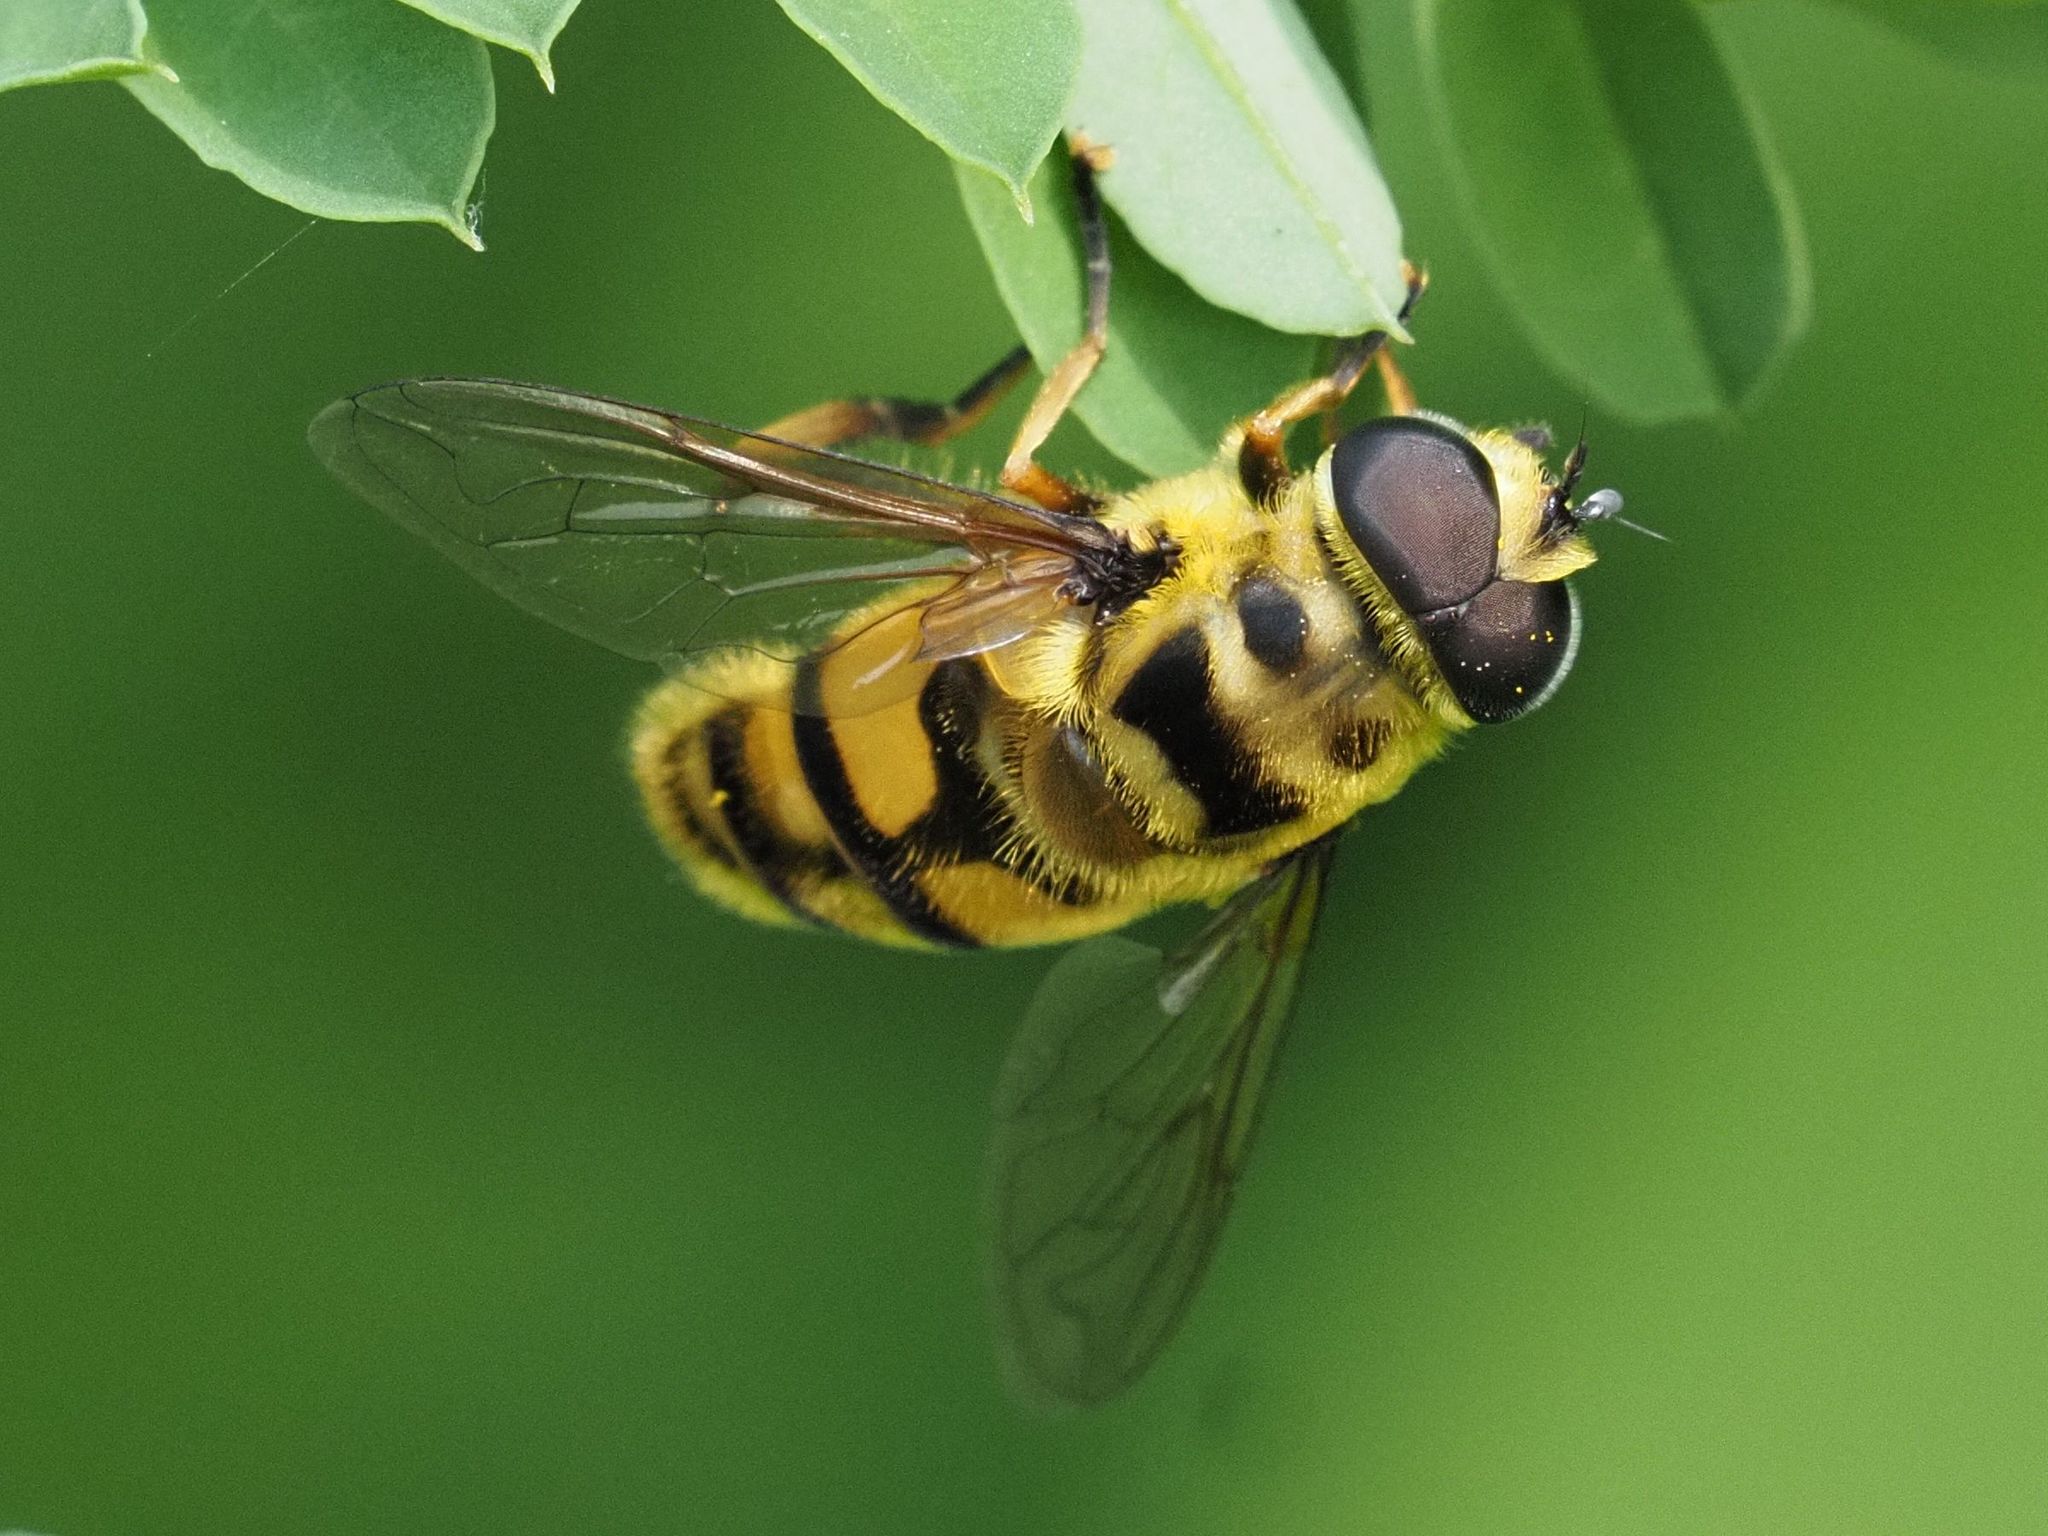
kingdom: Animalia
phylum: Arthropoda
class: Insecta
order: Diptera
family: Syrphidae
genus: Myathropa
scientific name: Myathropa florea
